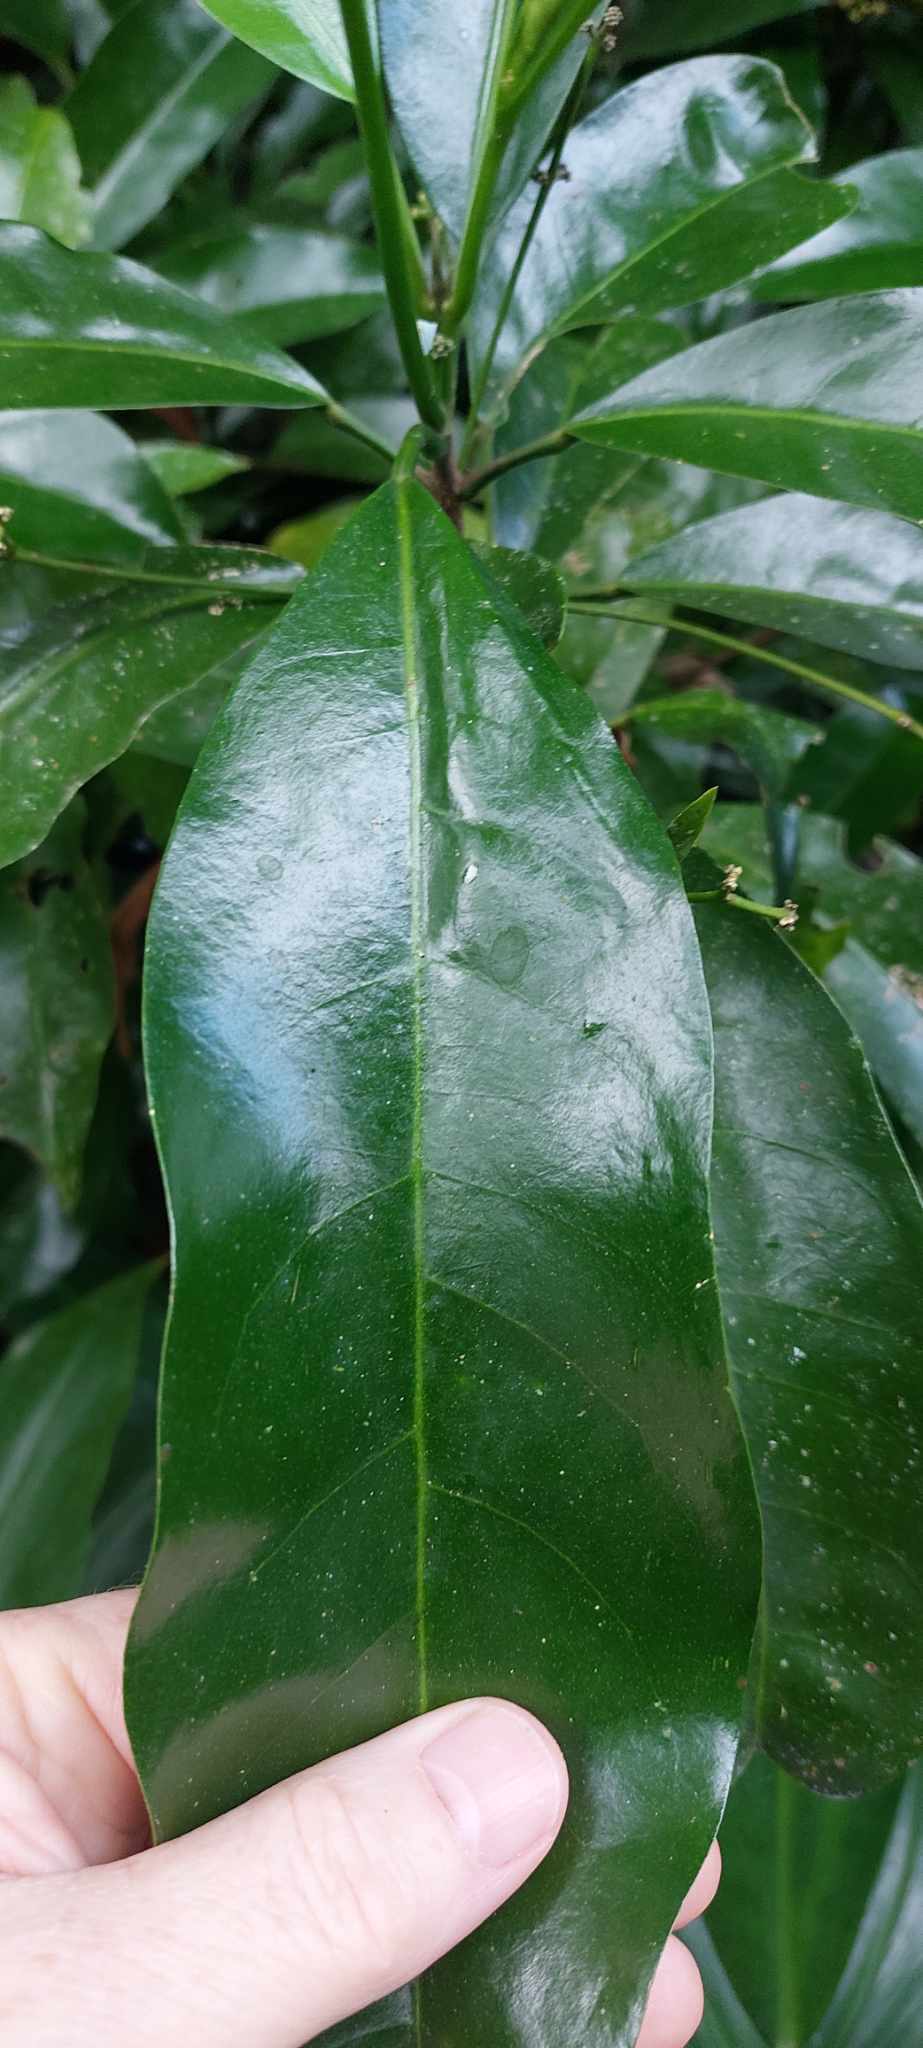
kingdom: Plantae
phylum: Tracheophyta
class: Magnoliopsida
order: Sapindales
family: Rutaceae
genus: Pitaviaster
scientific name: Pitaviaster haplophyllus
